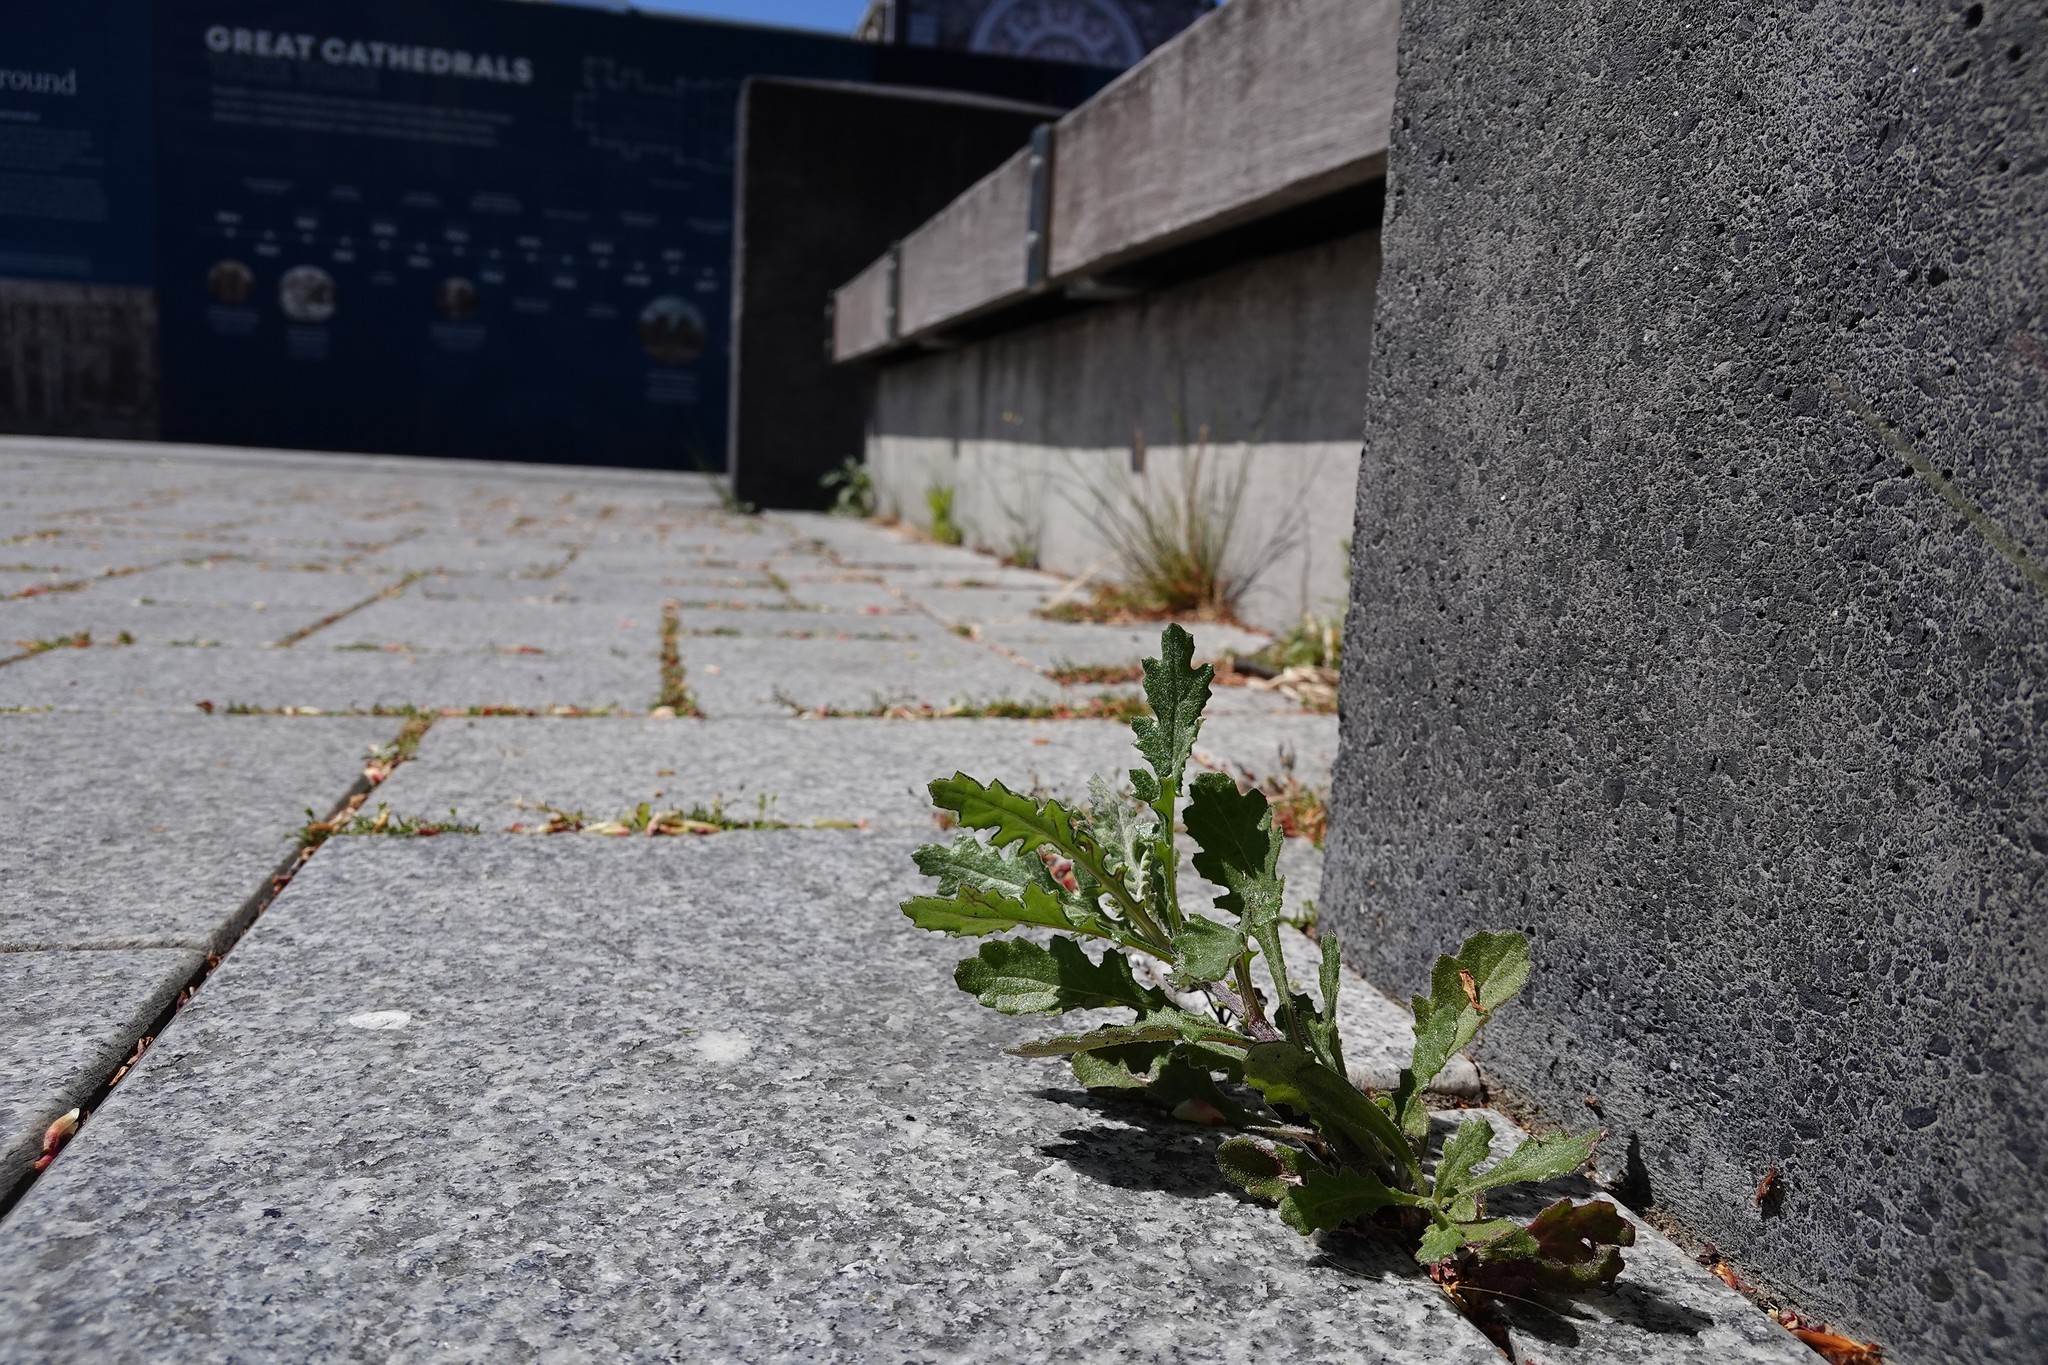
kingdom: Plantae
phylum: Tracheophyta
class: Magnoliopsida
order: Asterales
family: Asteraceae
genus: Senecio
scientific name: Senecio glomeratus
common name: Cutleaf burnweed
